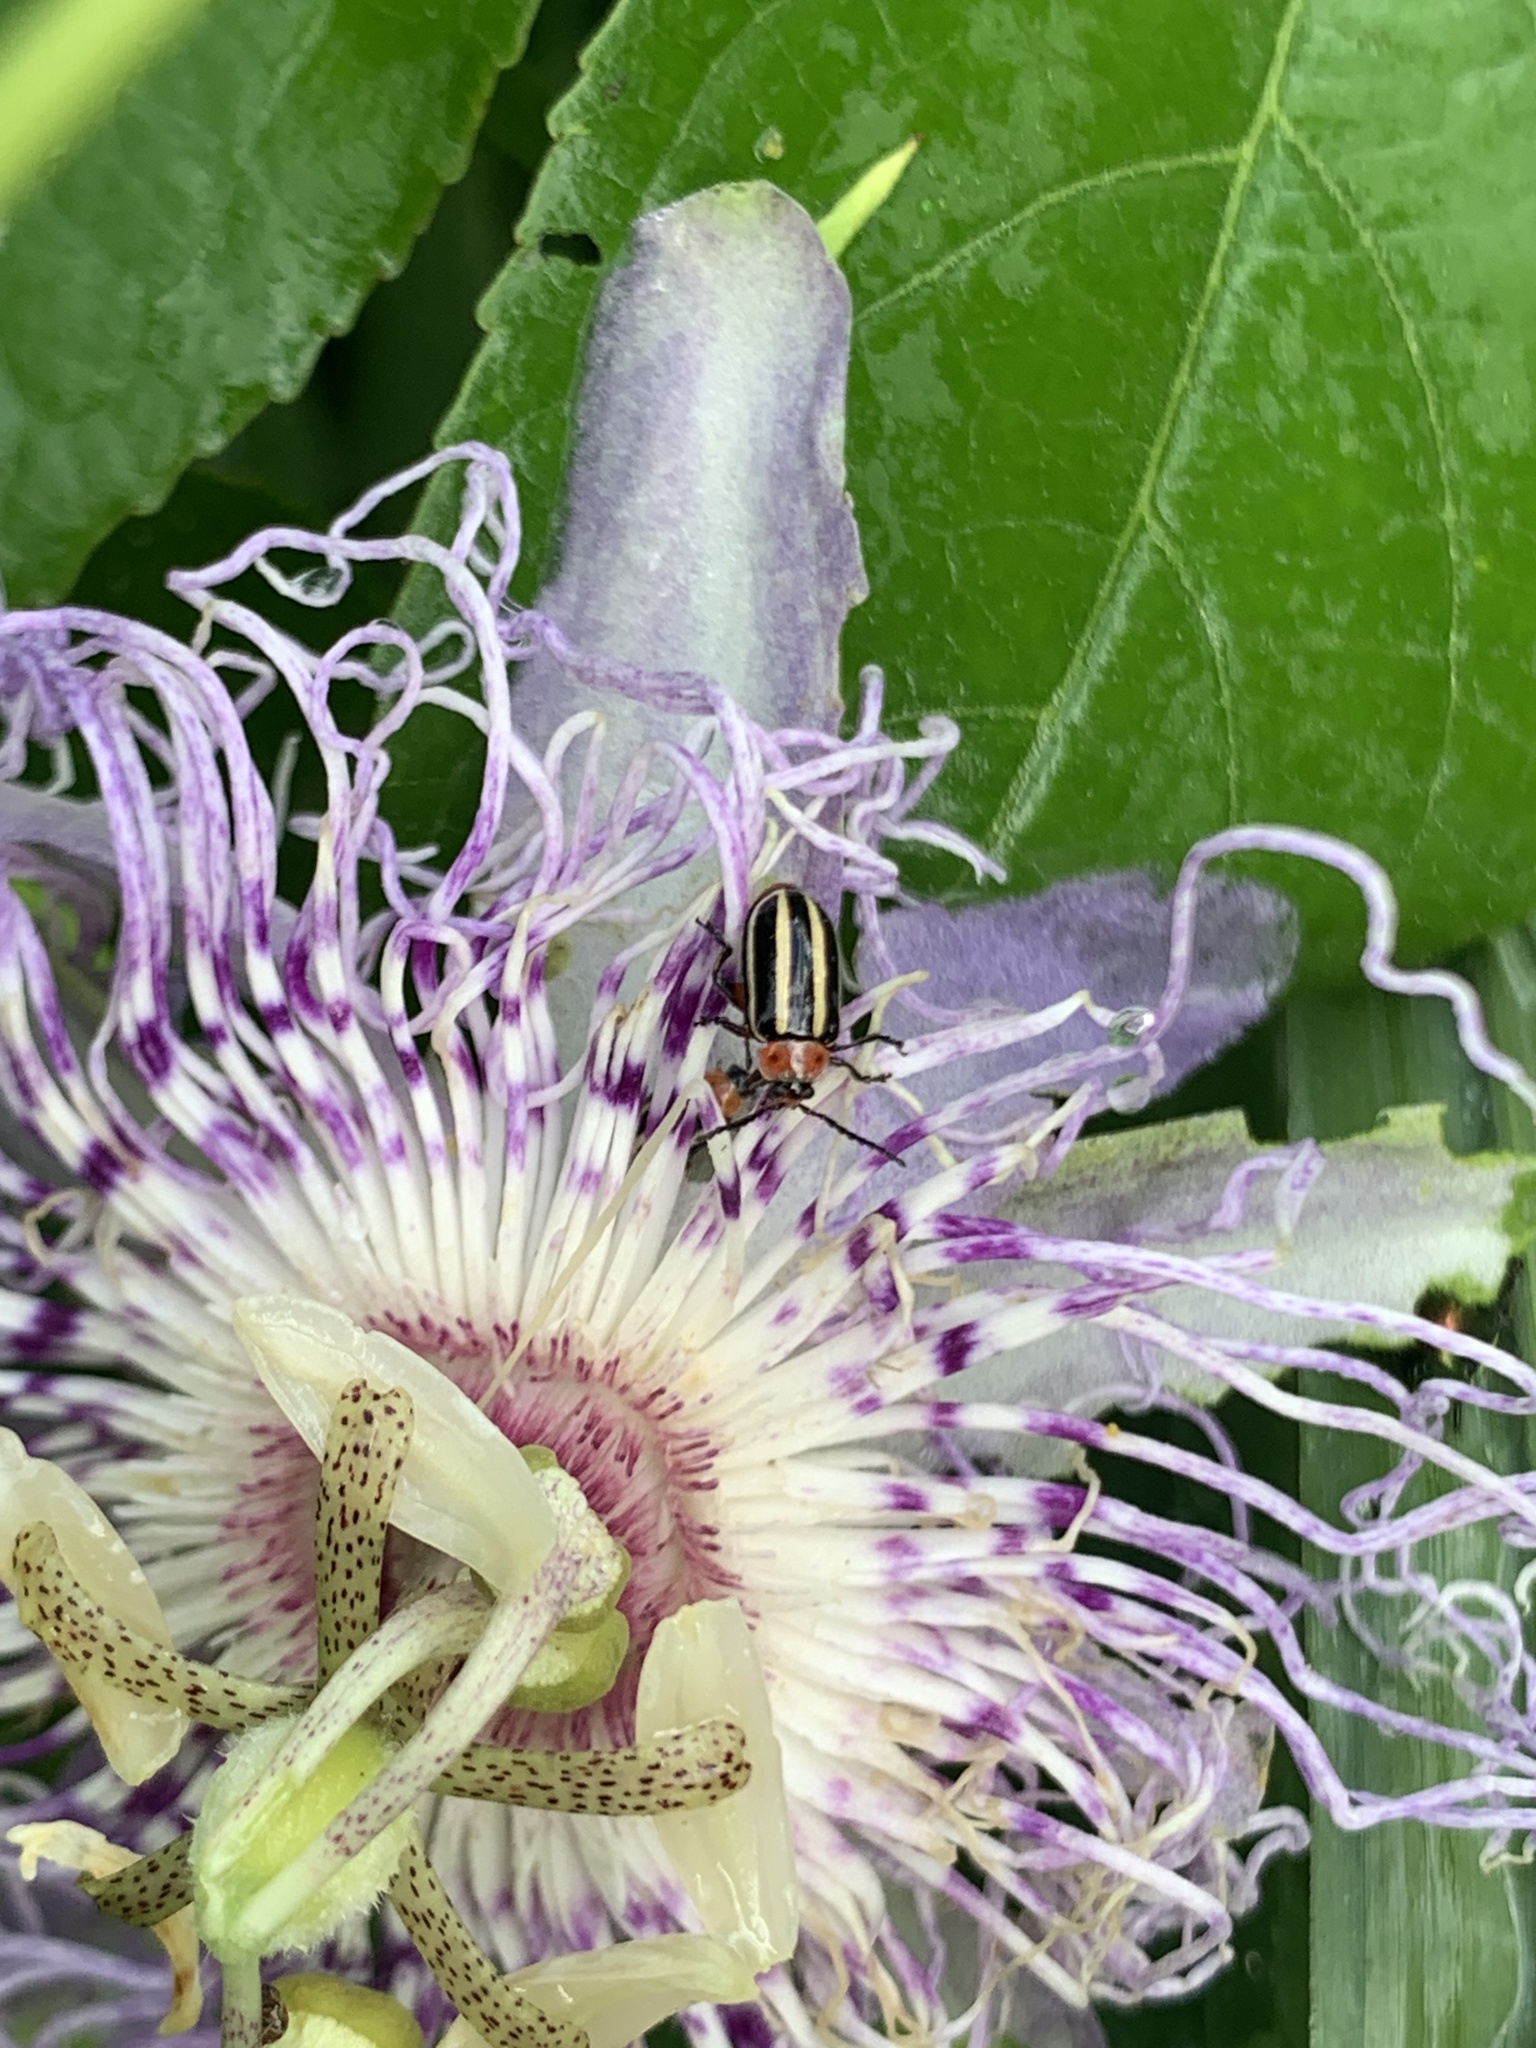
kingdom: Animalia
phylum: Arthropoda
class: Insecta
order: Coleoptera
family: Chrysomelidae
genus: Disonycha
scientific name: Disonycha glabrata
